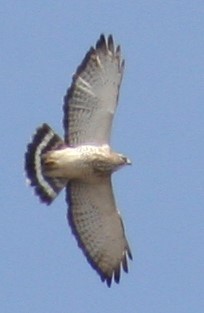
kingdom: Animalia
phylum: Chordata
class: Aves
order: Accipitriformes
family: Accipitridae
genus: Buteo
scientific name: Buteo platypterus
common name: Broad-winged hawk
